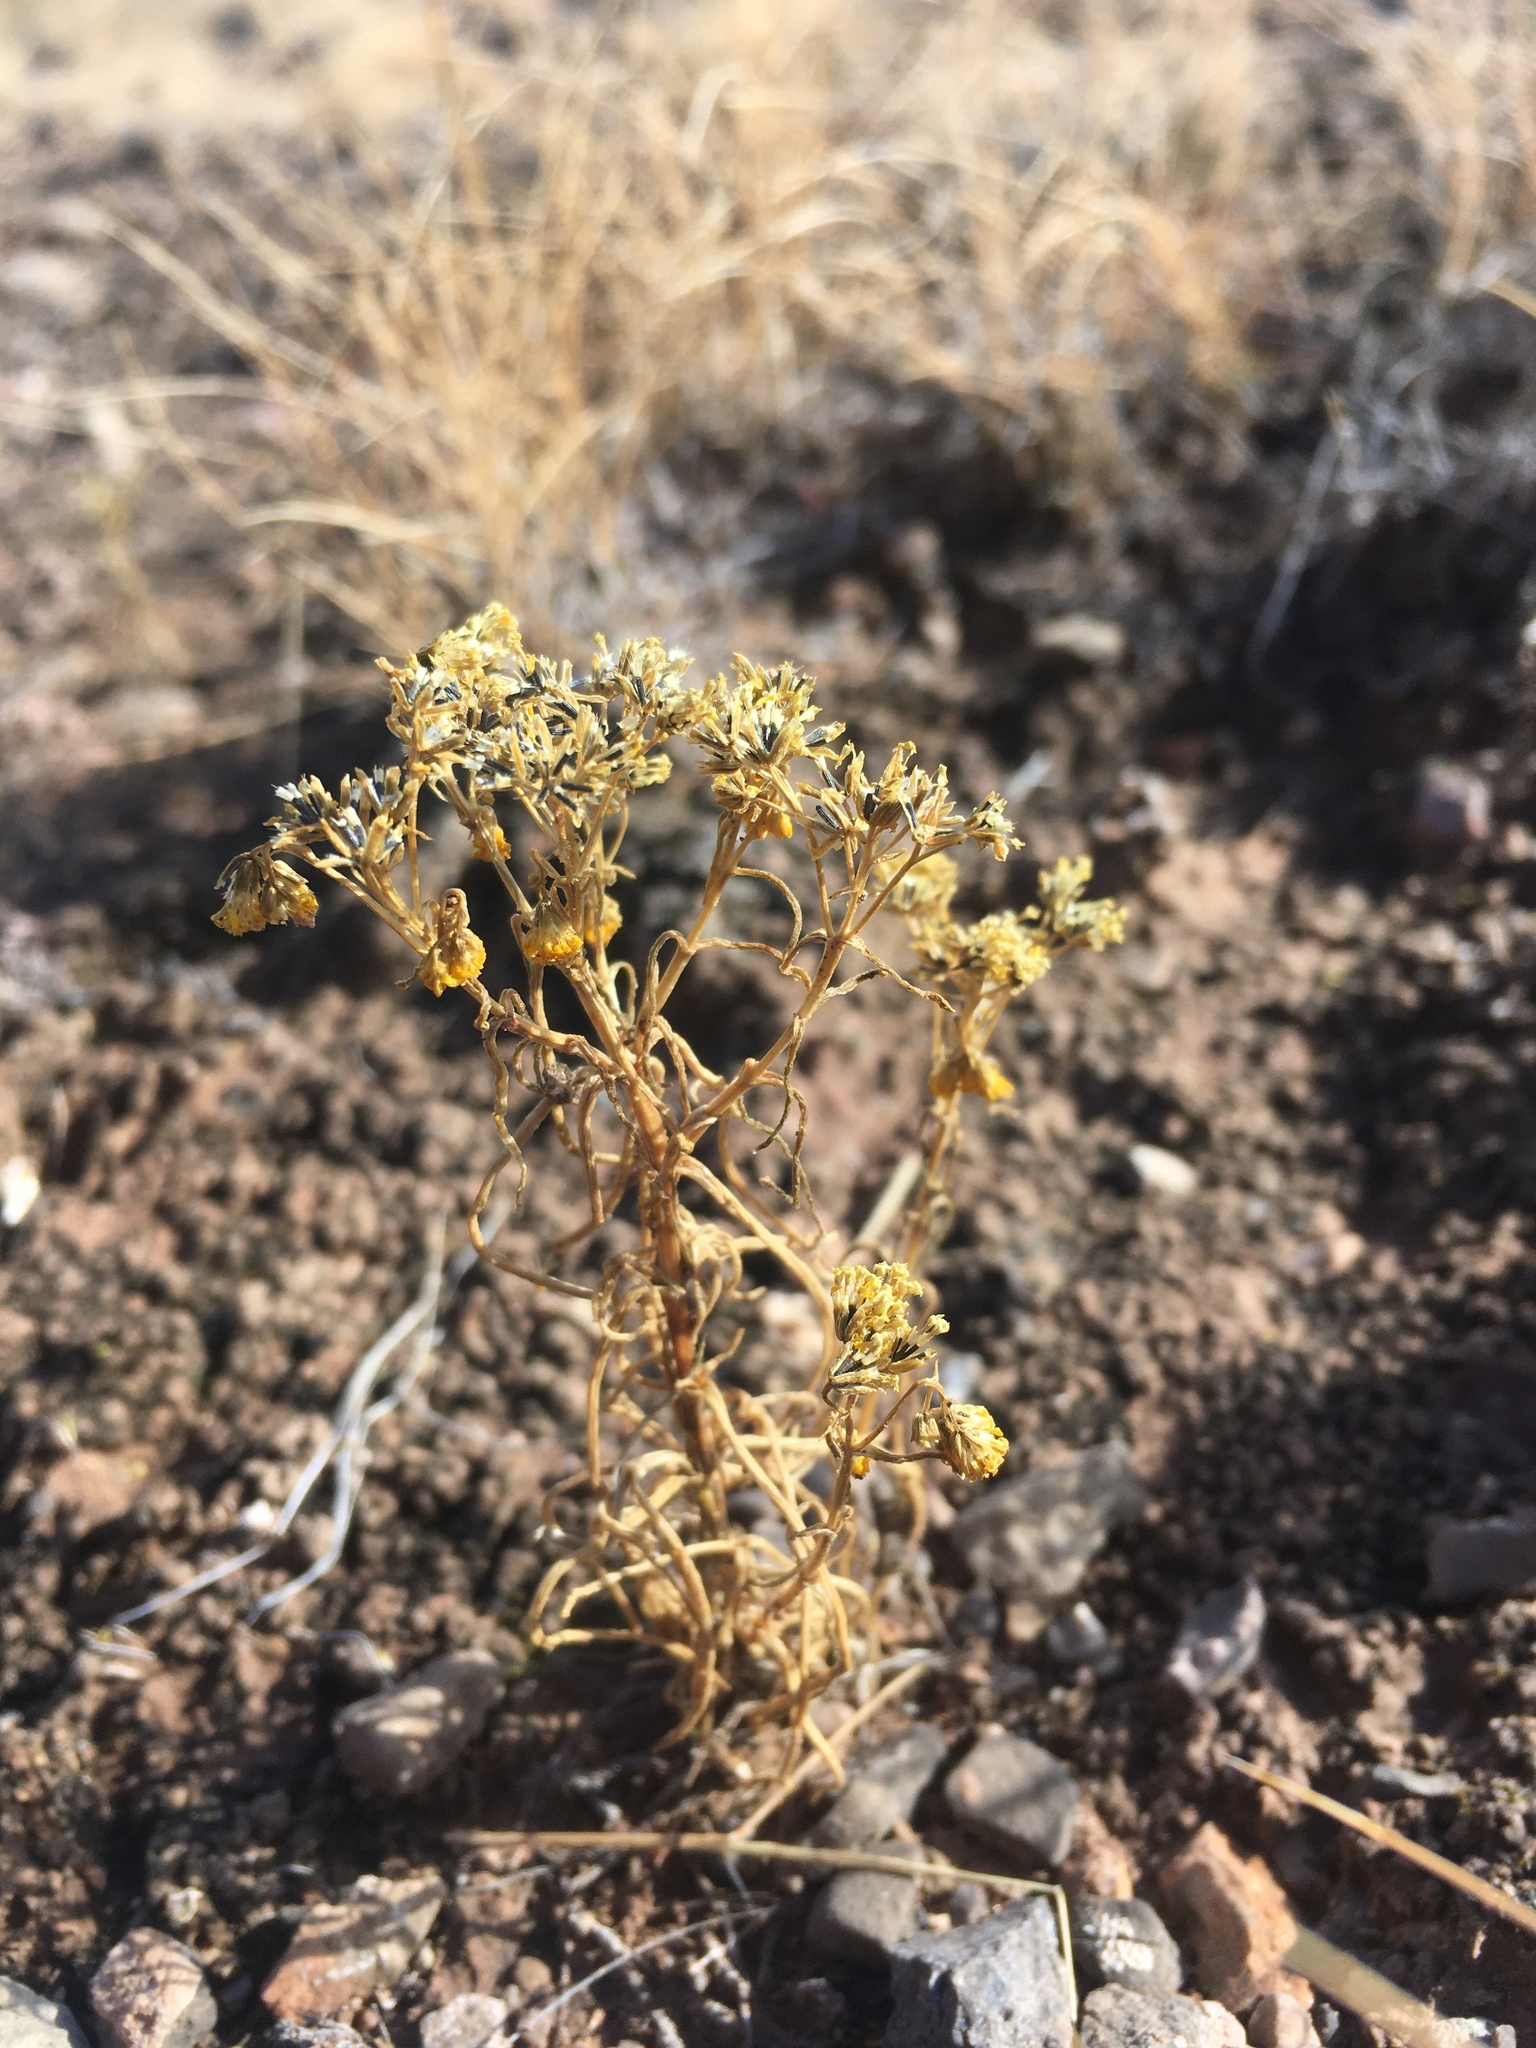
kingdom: Plantae
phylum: Tracheophyta
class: Magnoliopsida
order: Asterales
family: Asteraceae
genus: Sartwellia
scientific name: Sartwellia flaveriae
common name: Sartwellia
